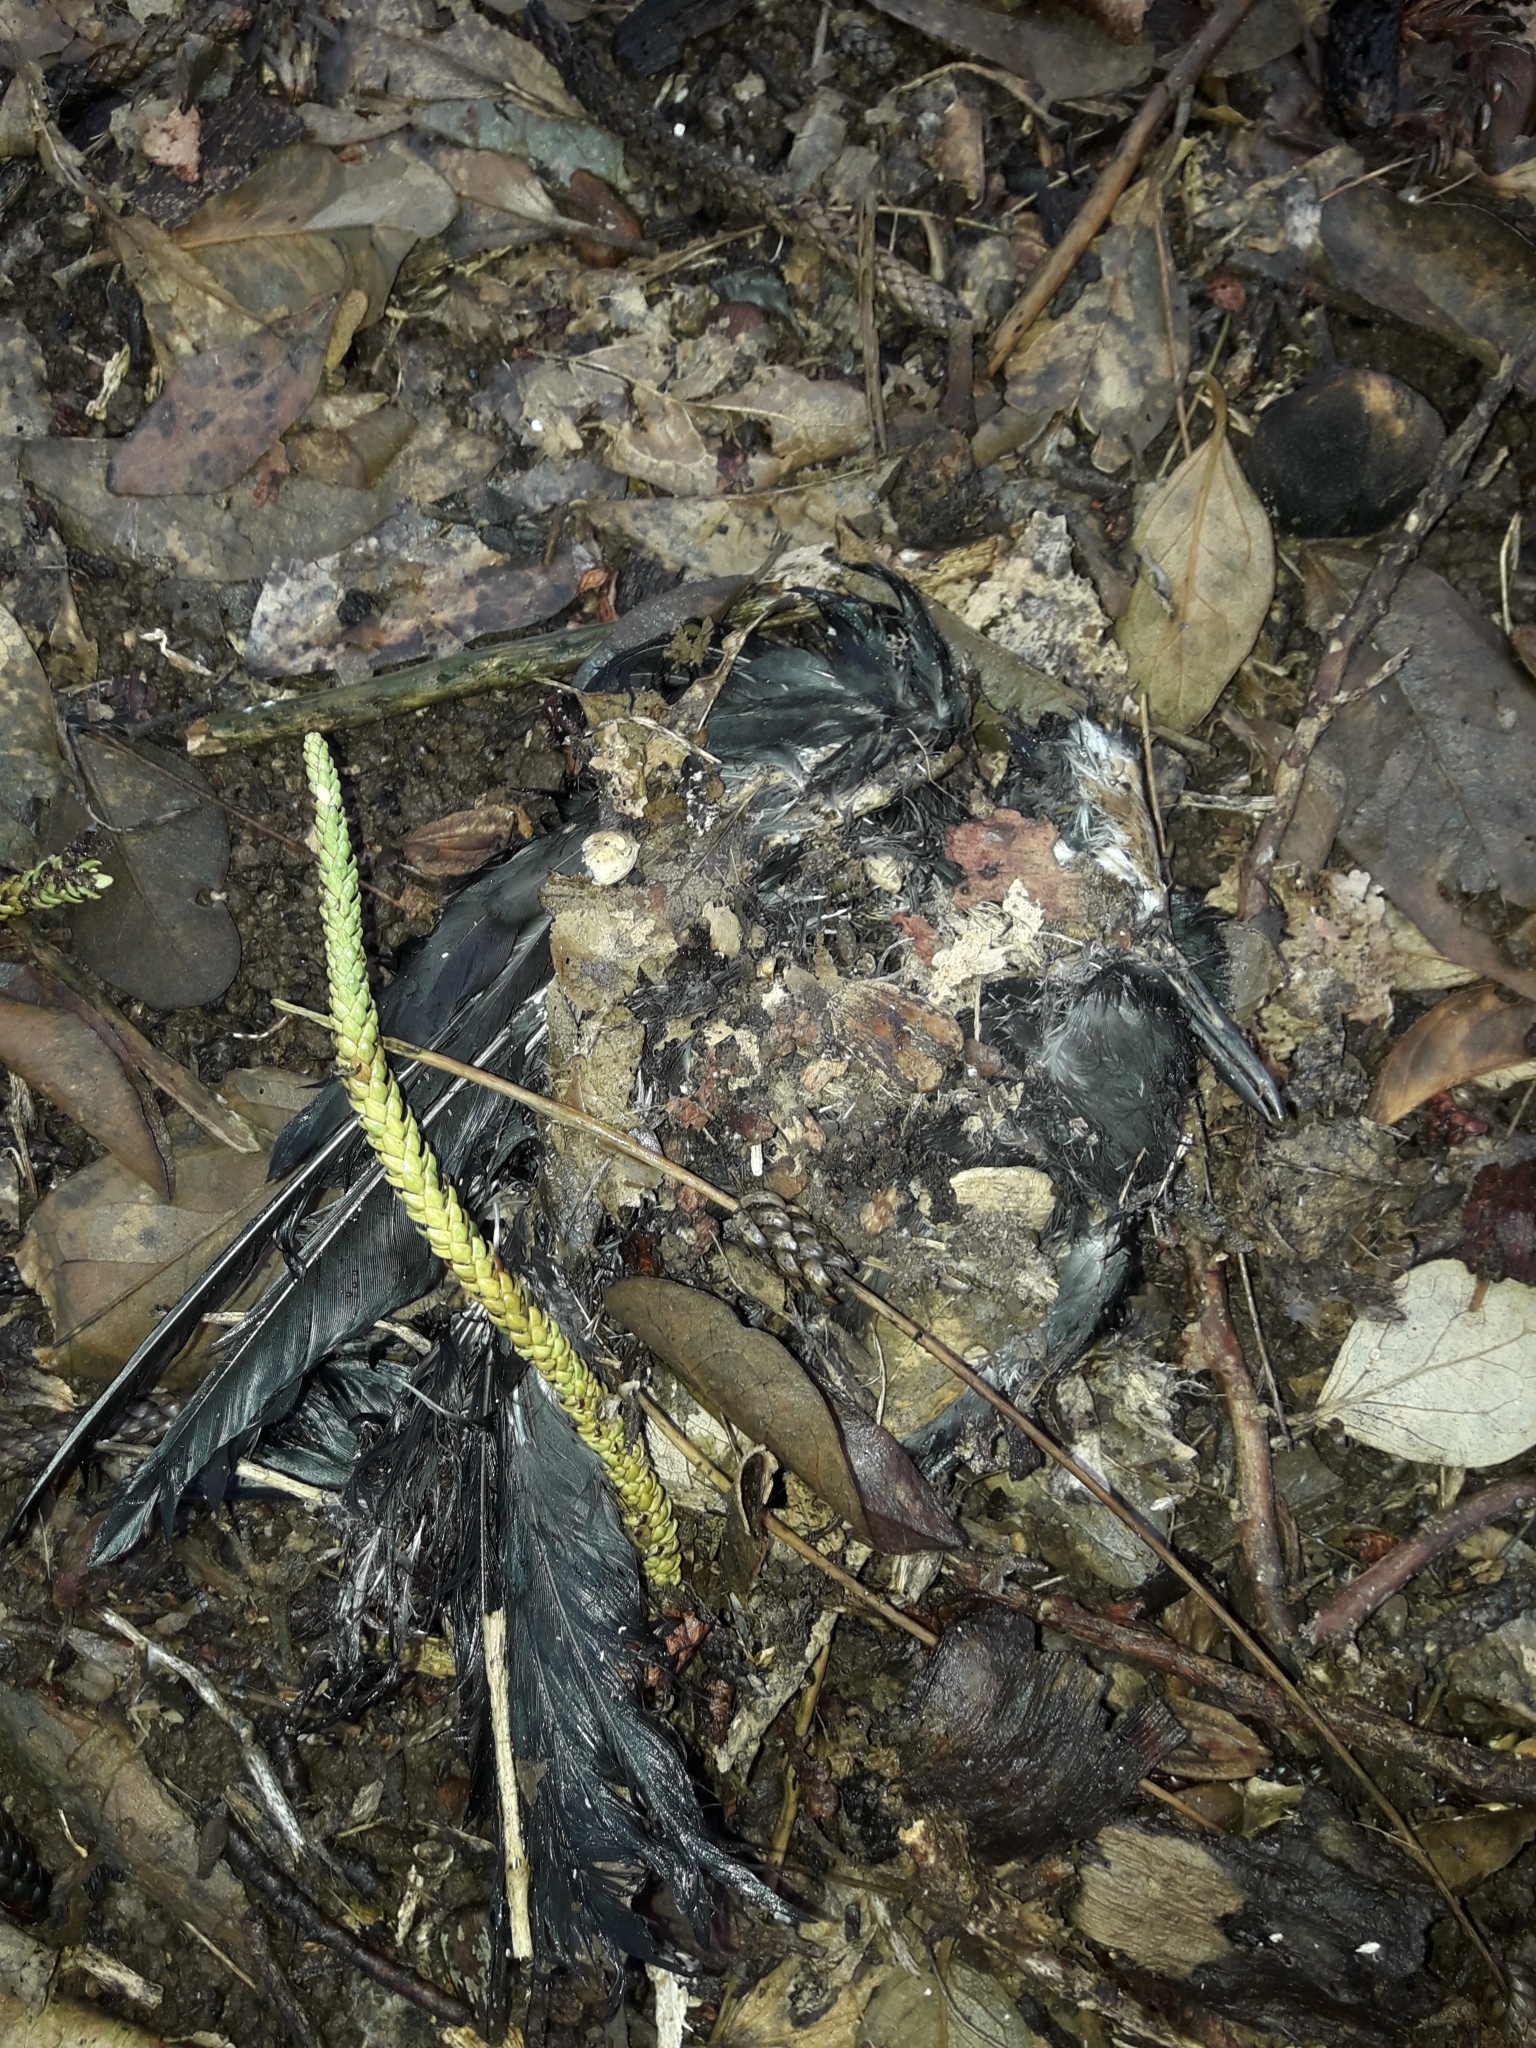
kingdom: Animalia
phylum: Chordata
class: Aves
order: Charadriiformes
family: Laridae
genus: Anous
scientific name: Anous minutus
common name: Black noddy
